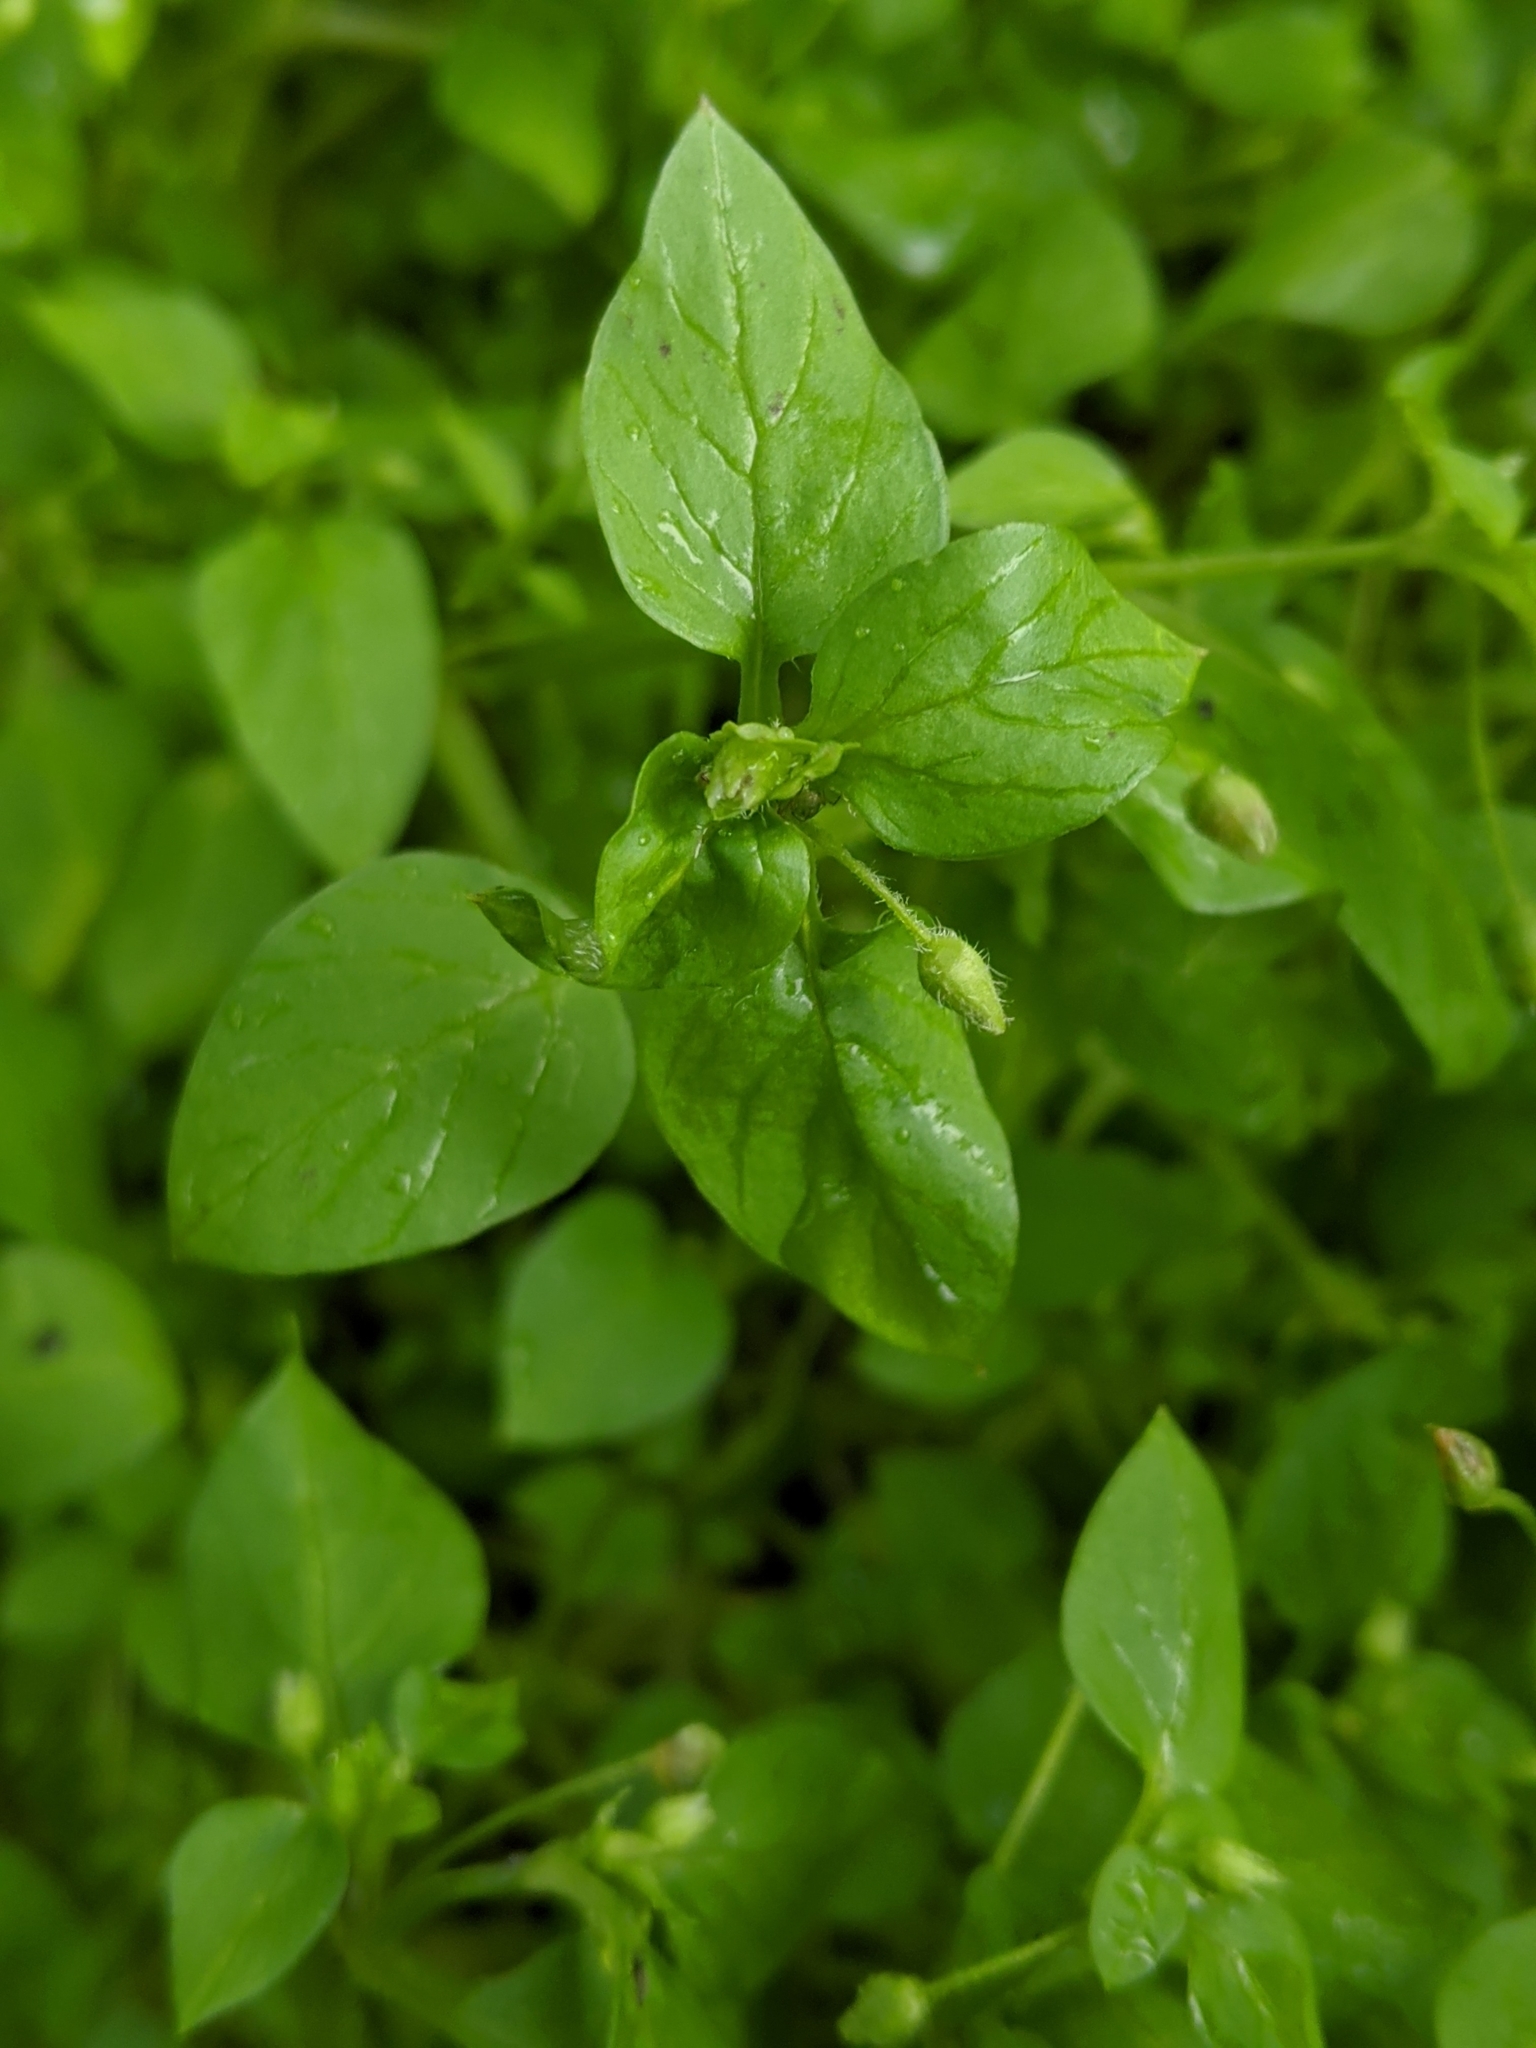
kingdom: Plantae
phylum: Tracheophyta
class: Magnoliopsida
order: Caryophyllales
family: Caryophyllaceae
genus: Stellaria
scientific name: Stellaria media
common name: Common chickweed
